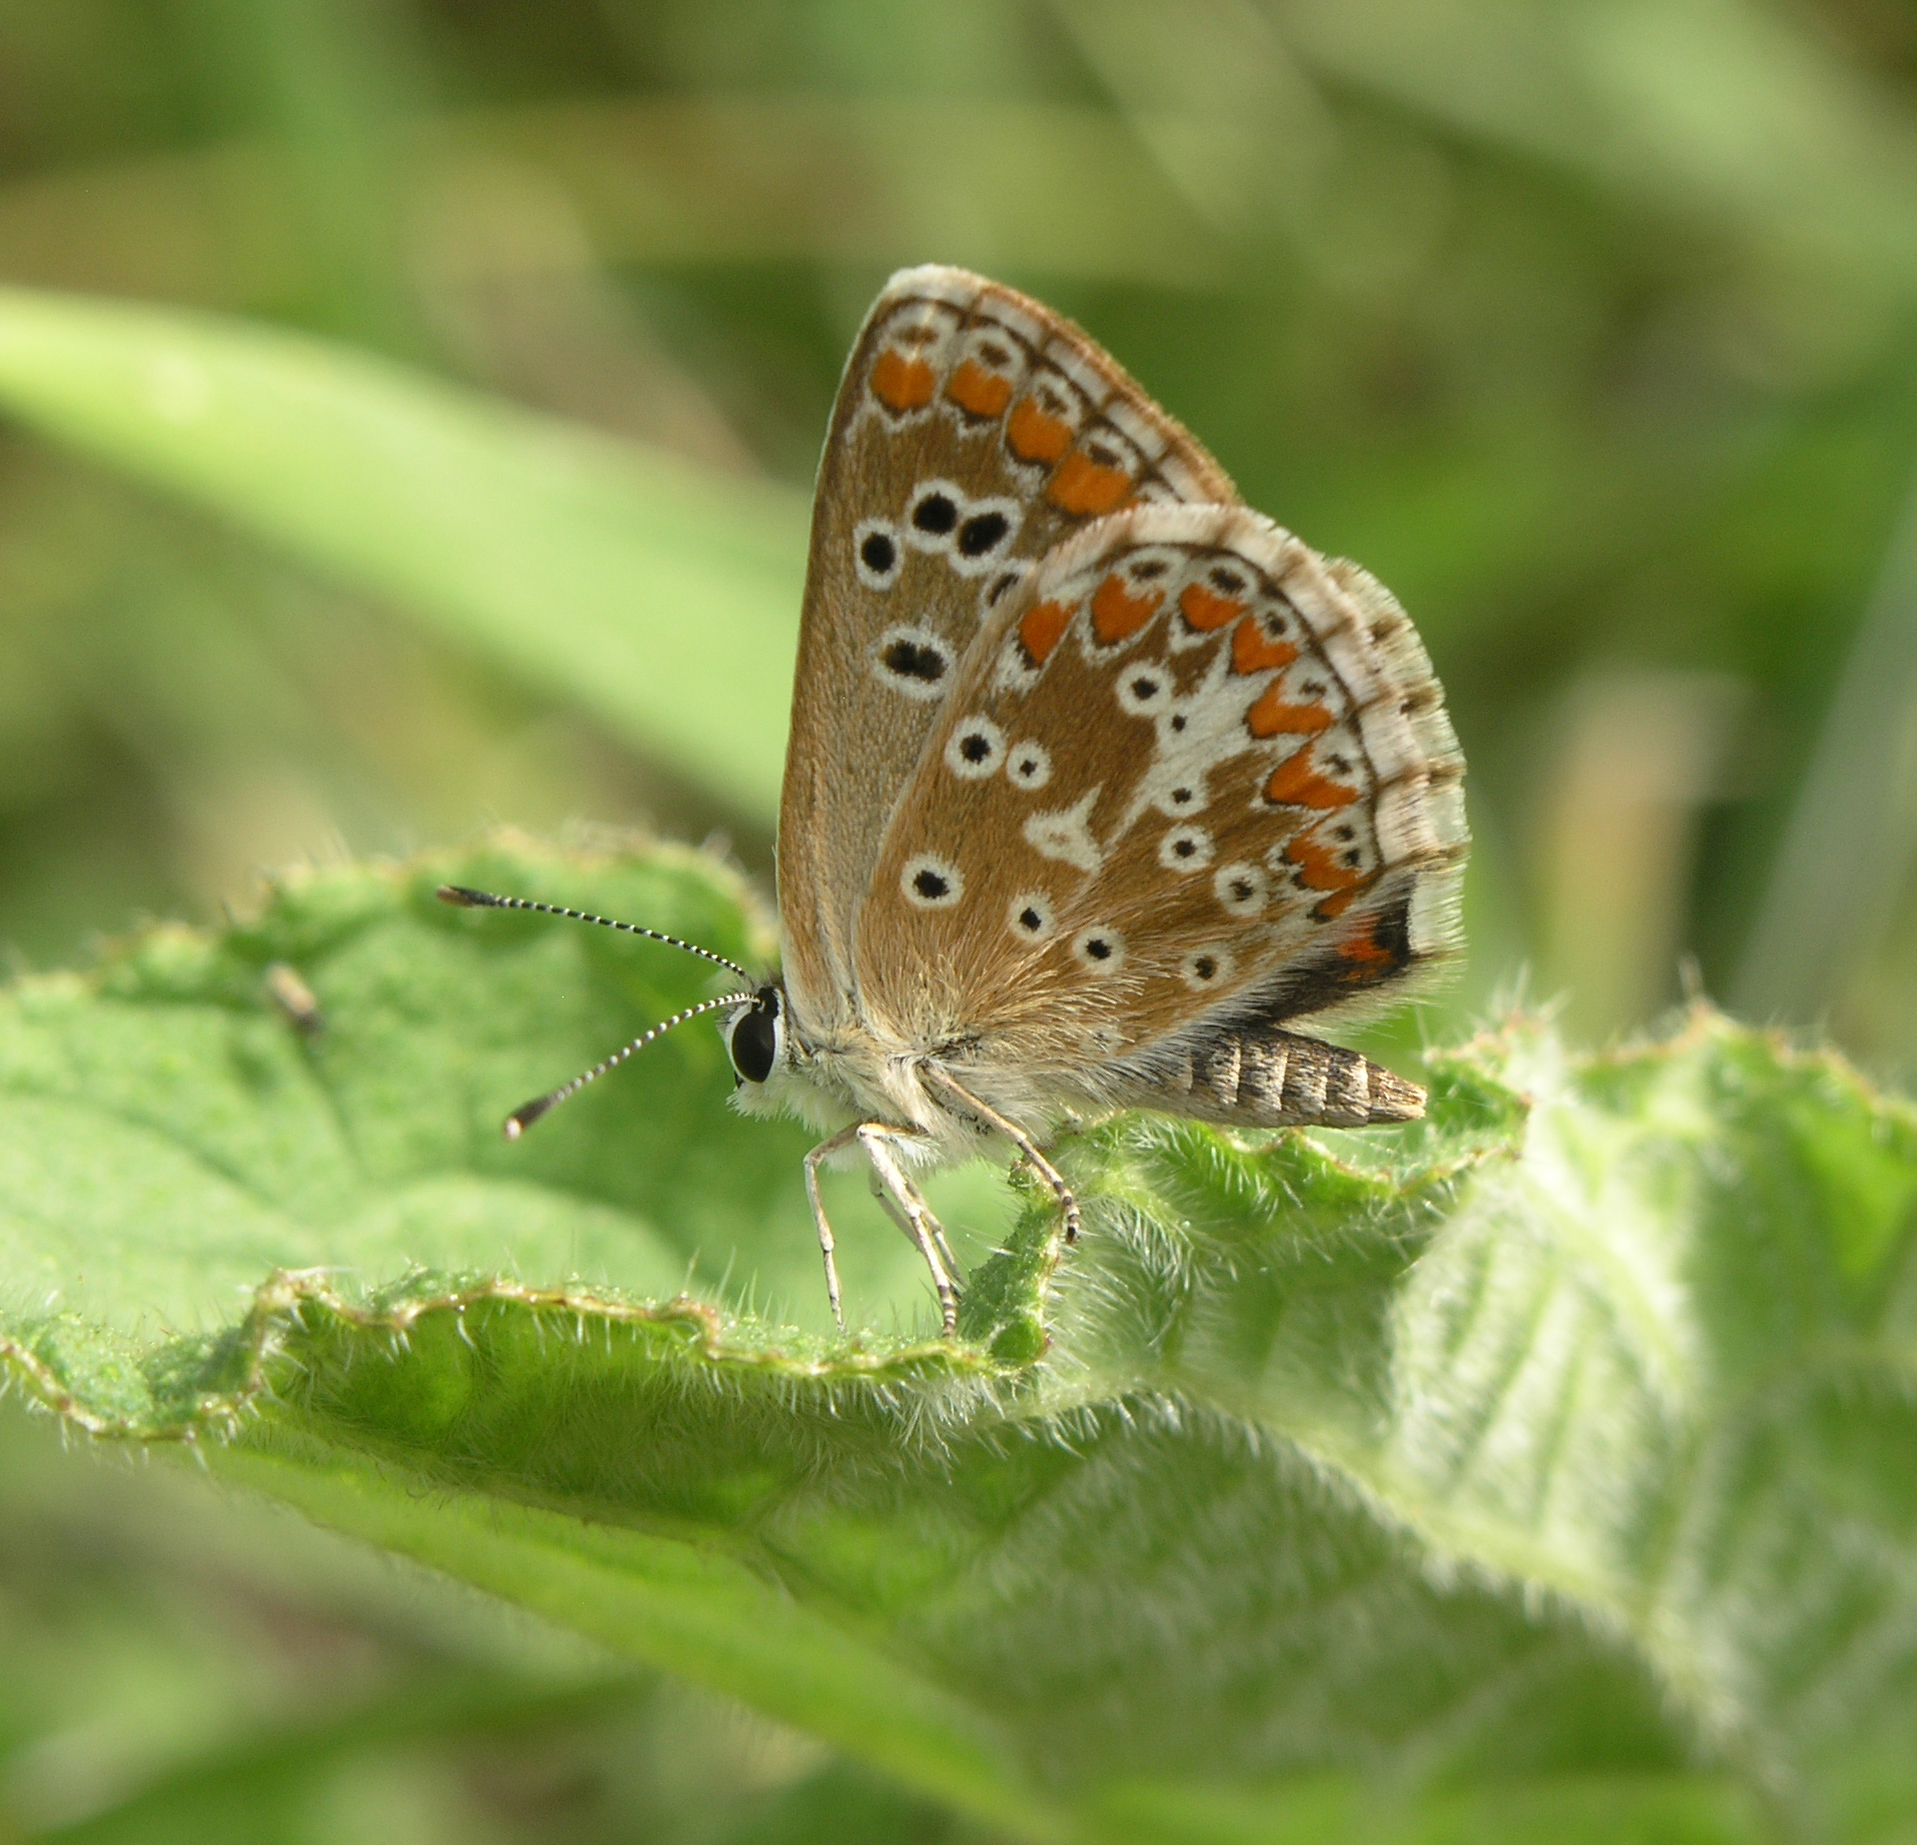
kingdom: Animalia
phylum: Arthropoda
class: Insecta
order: Lepidoptera
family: Lycaenidae
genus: Aricia
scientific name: Aricia cramera
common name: Eschscholtz´s brown  argus
